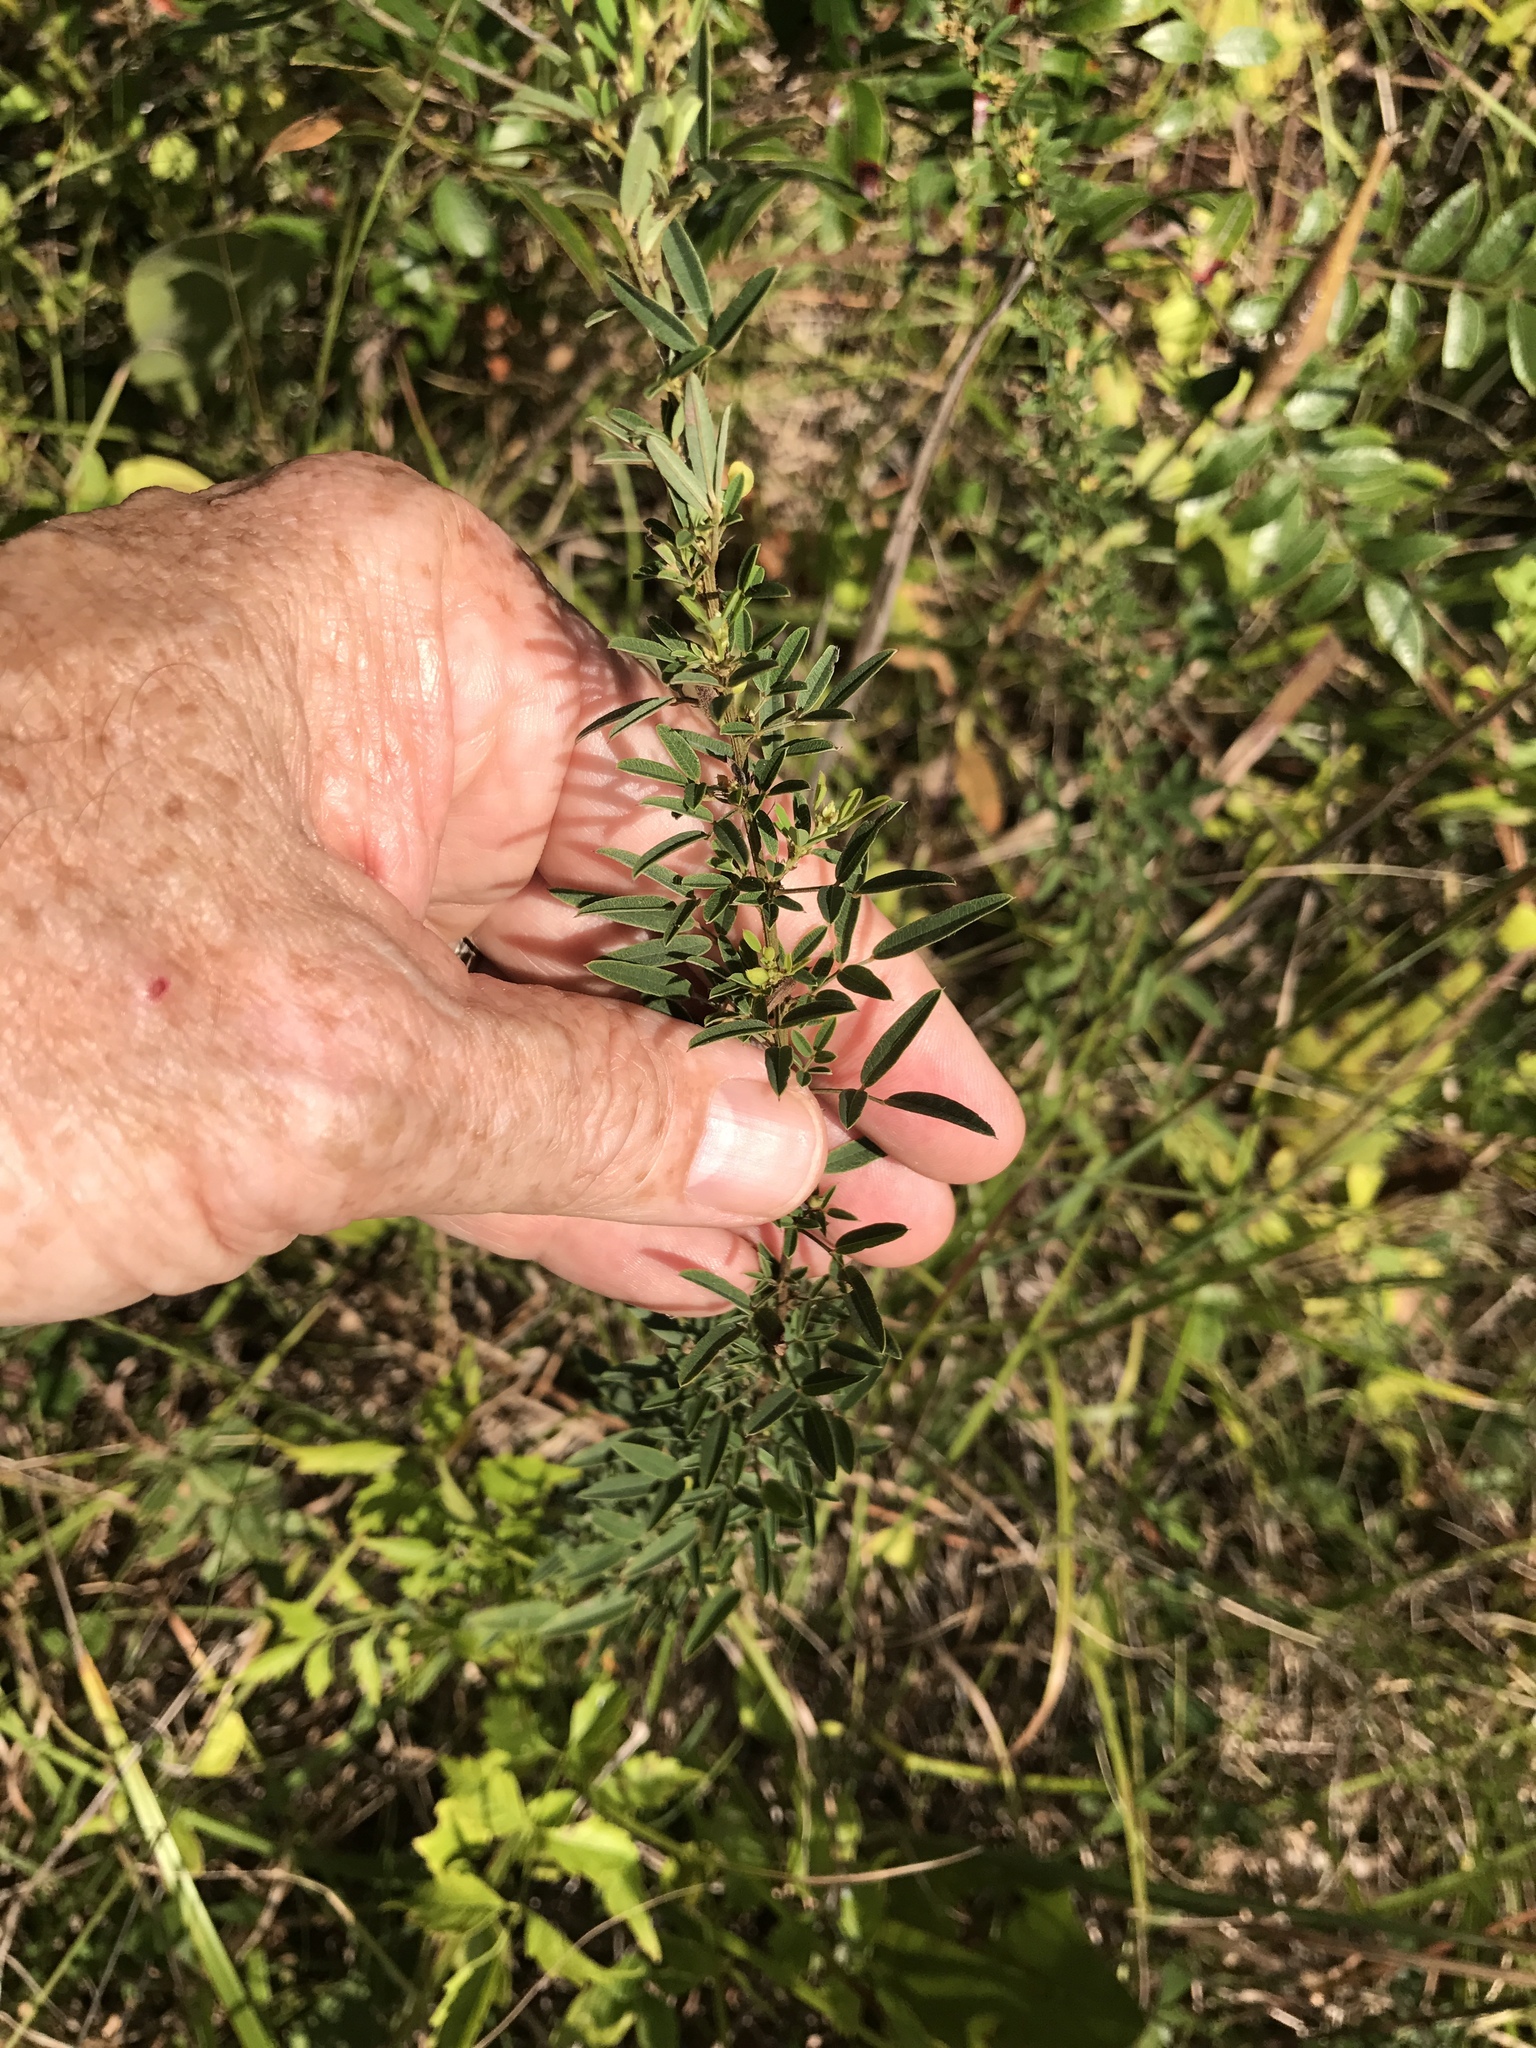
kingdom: Plantae
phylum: Tracheophyta
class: Magnoliopsida
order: Fabales
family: Fabaceae
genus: Lespedeza
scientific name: Lespedeza virginica
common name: Slender bush-clover
